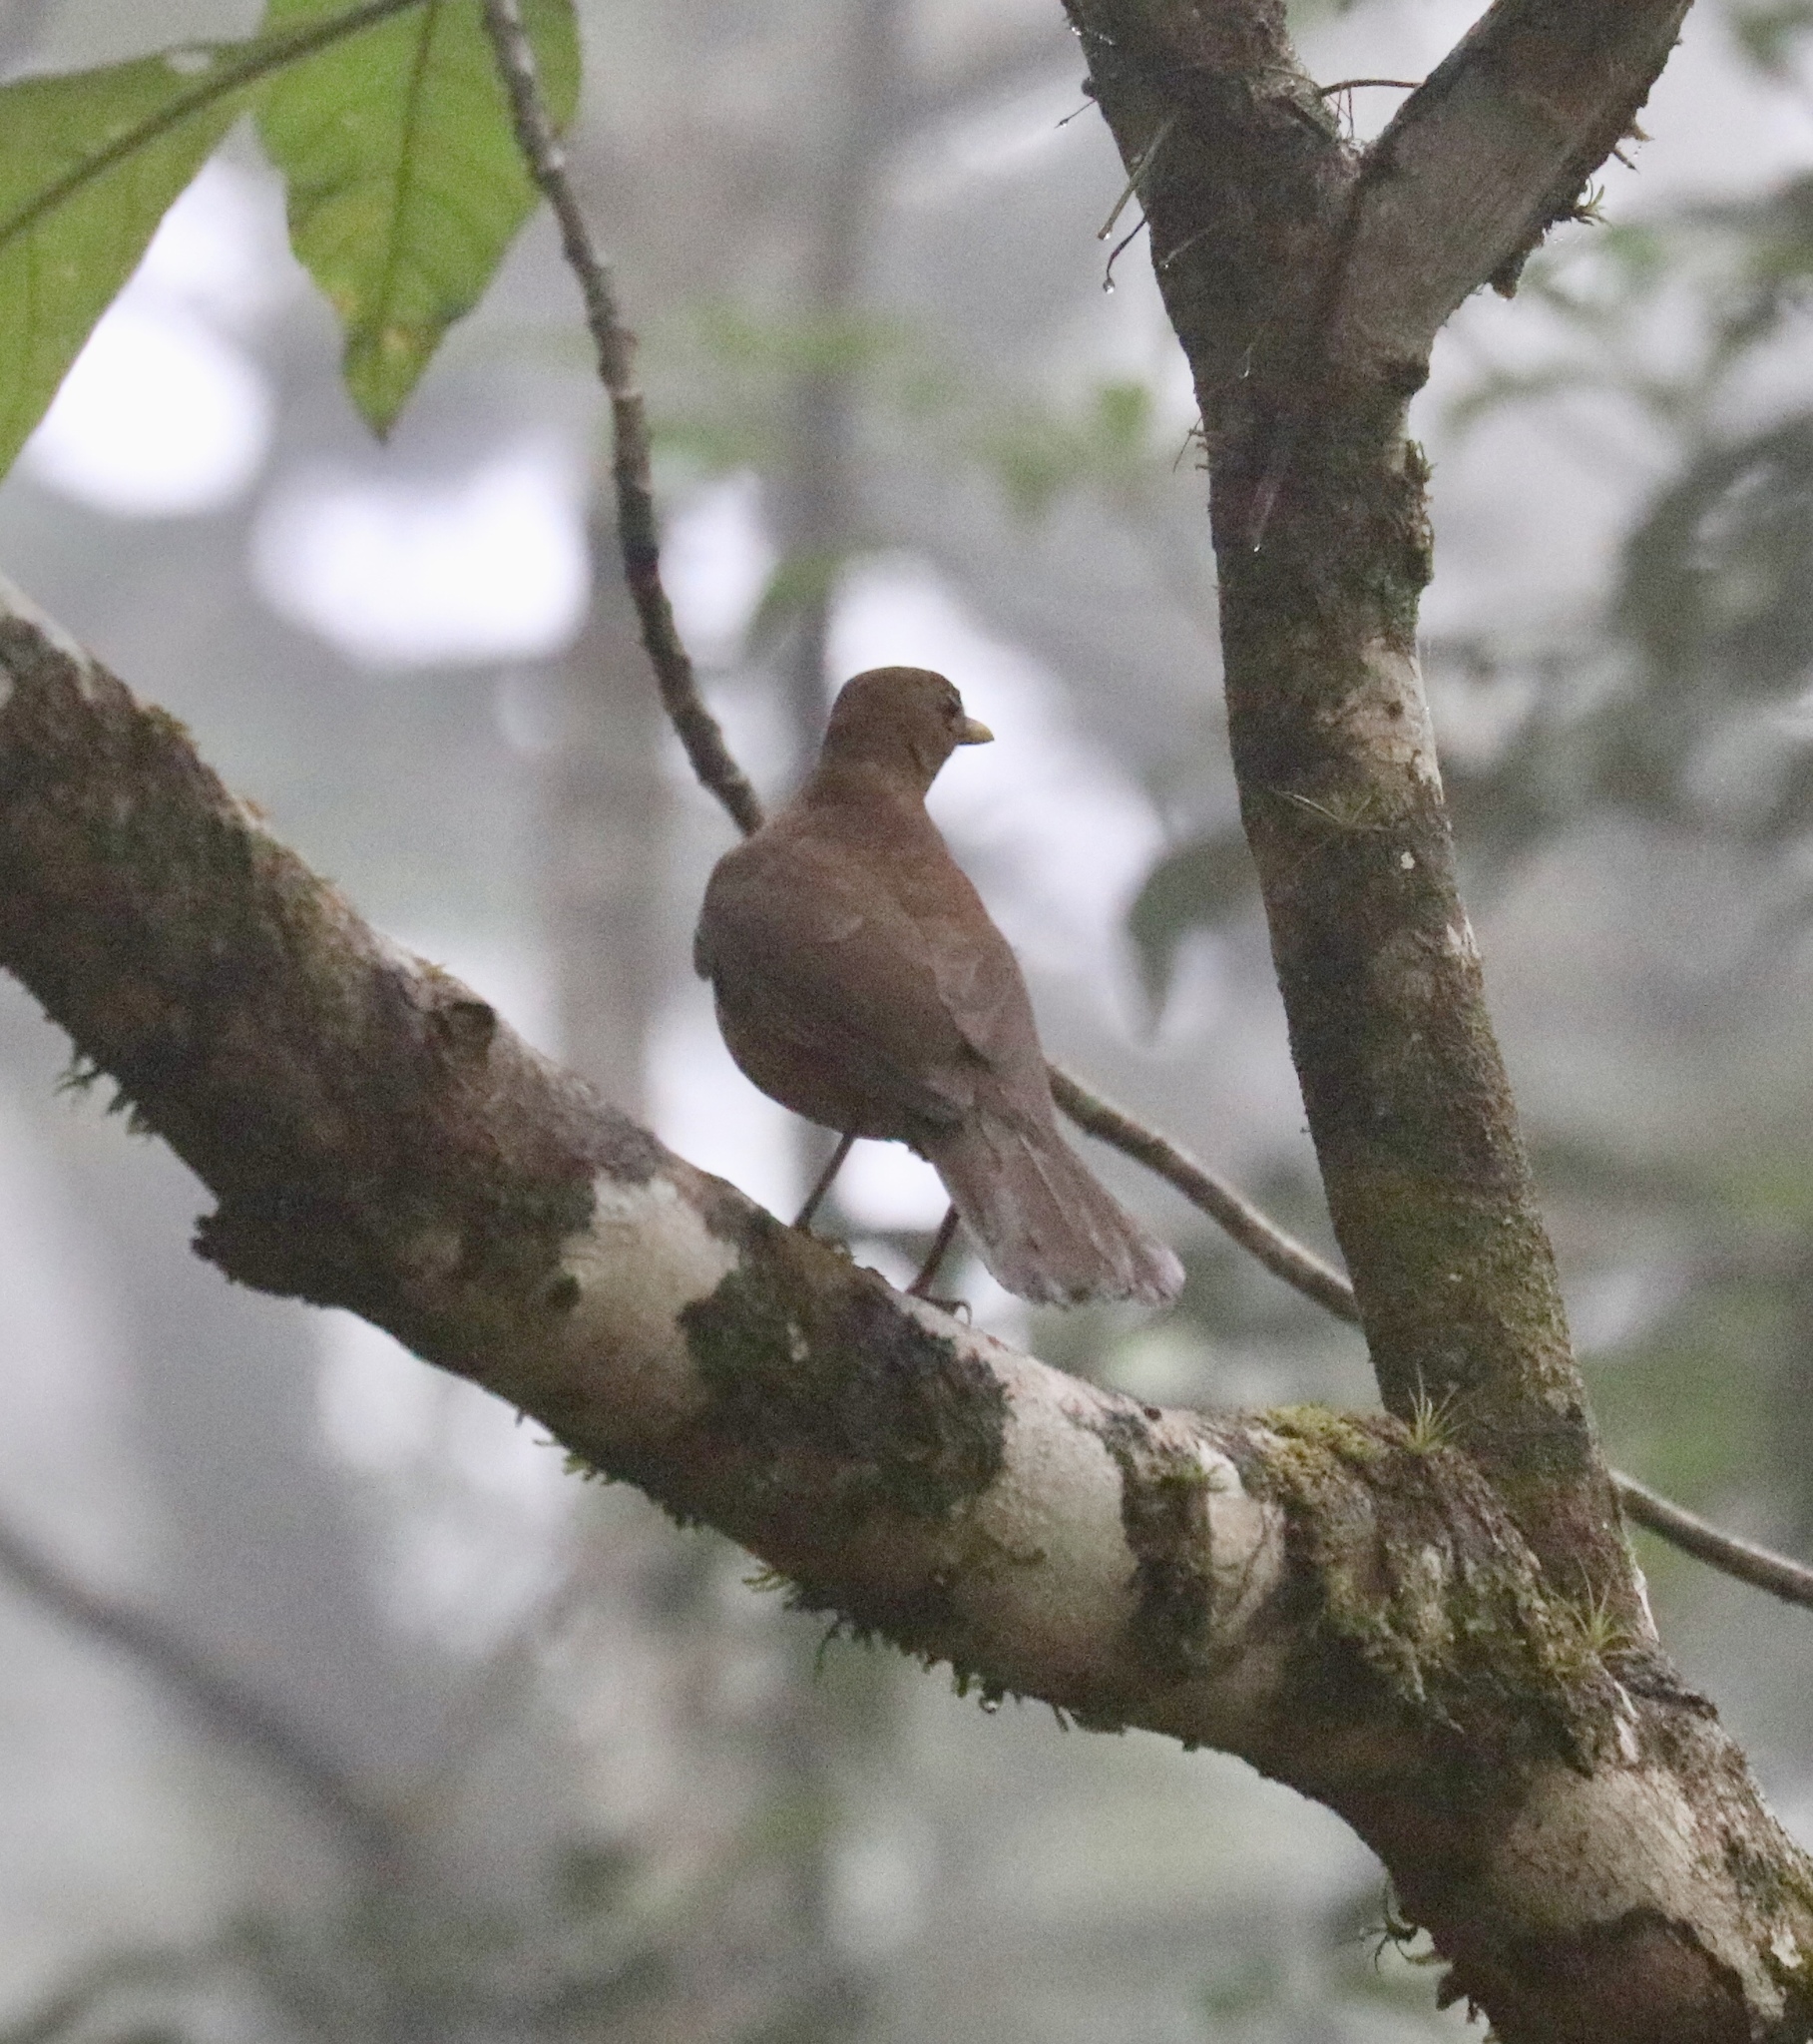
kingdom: Animalia
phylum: Chordata
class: Aves
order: Passeriformes
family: Turdidae
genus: Turdus
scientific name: Turdus grayi
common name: Clay-colored thrush
